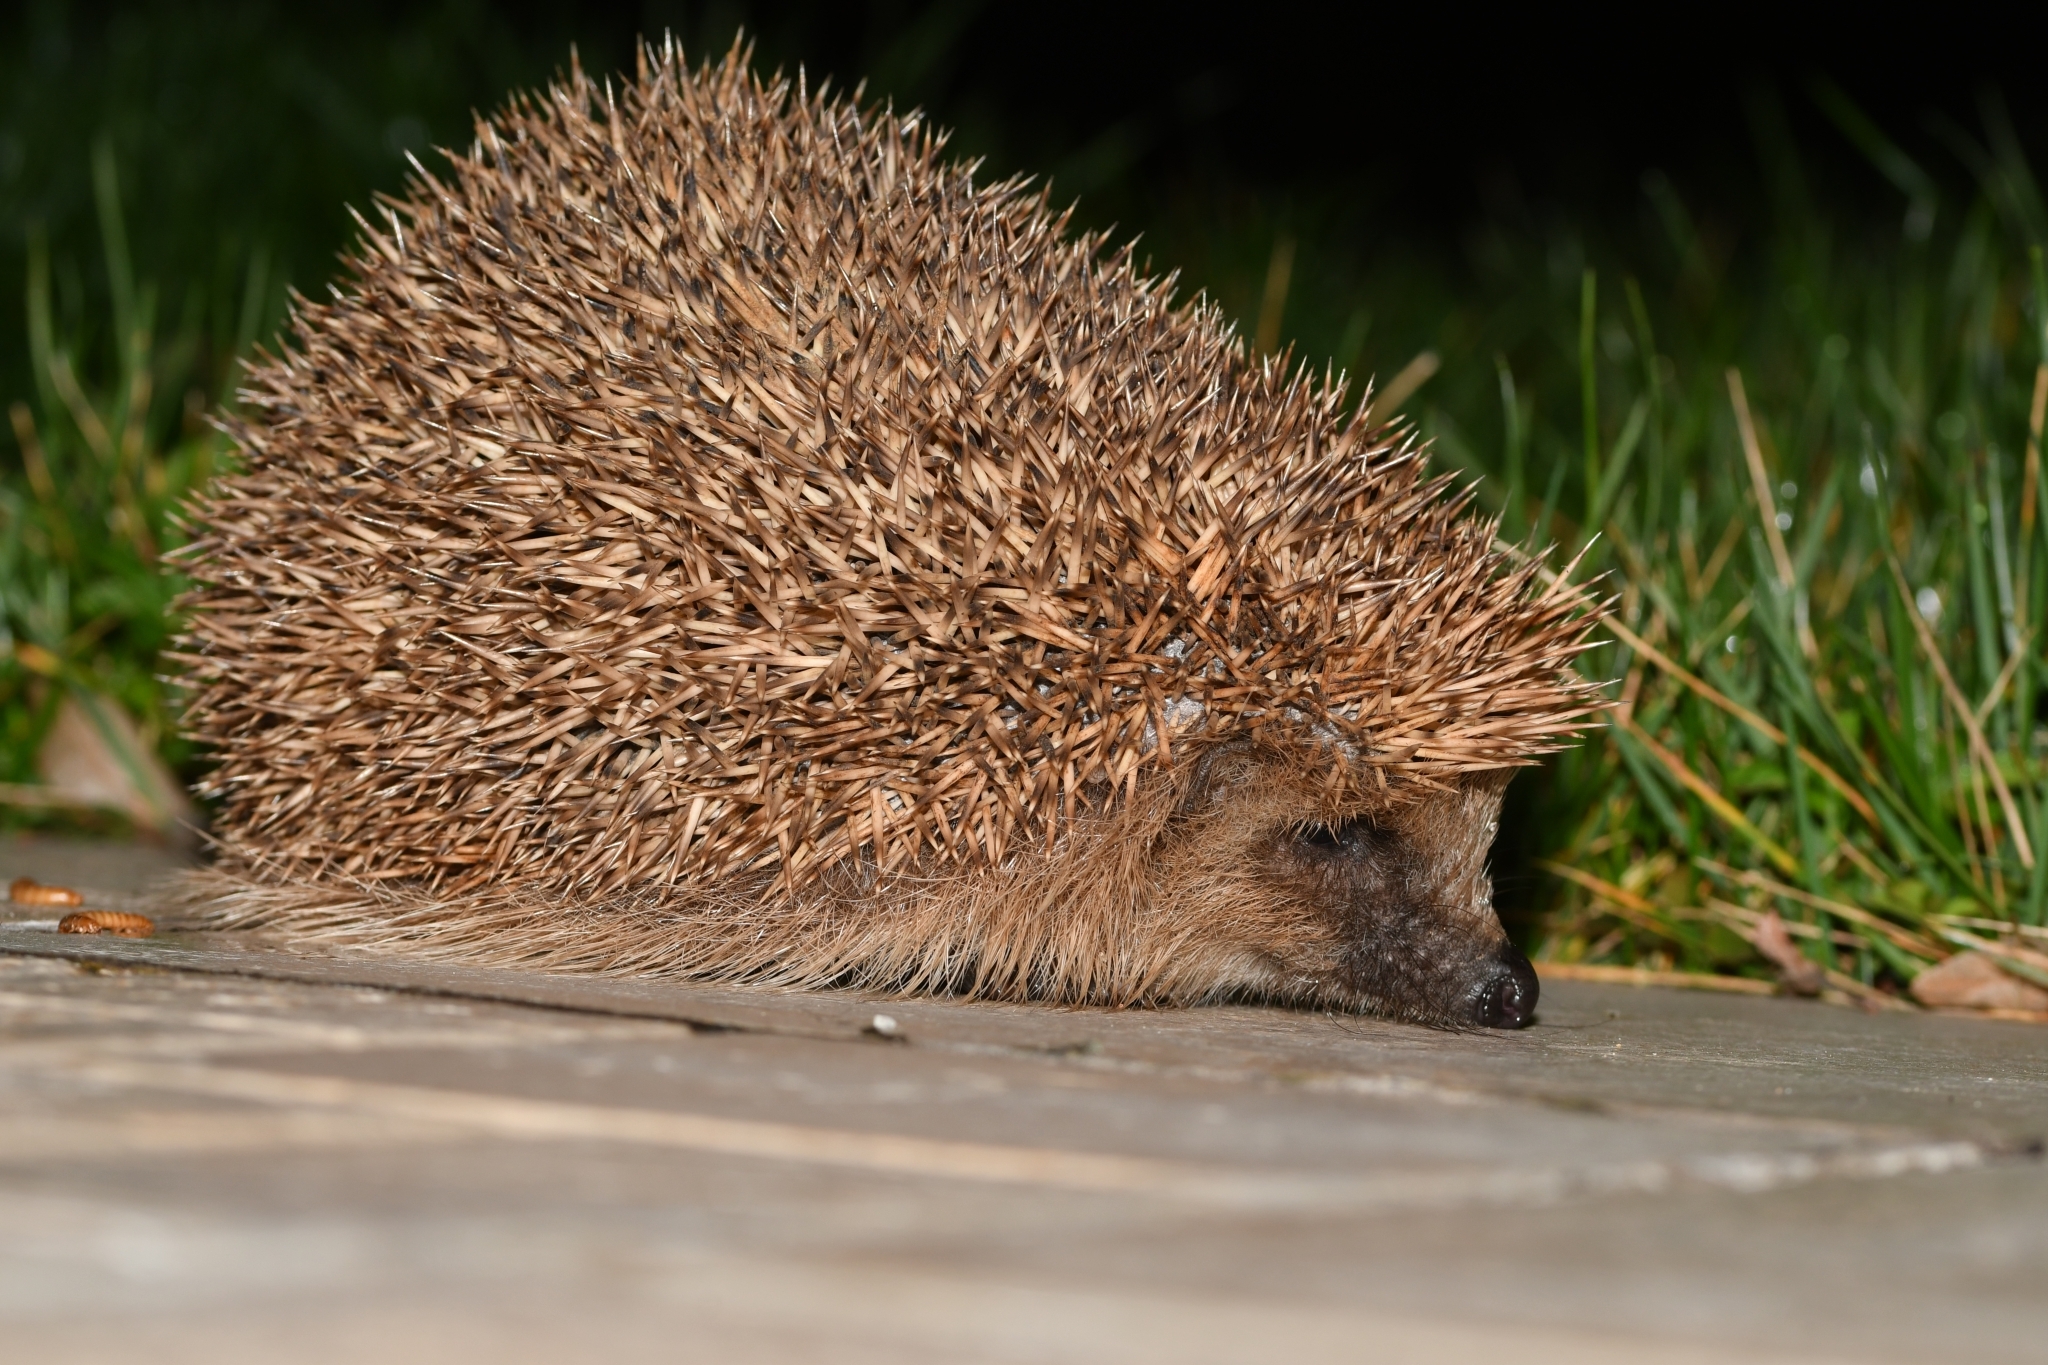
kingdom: Animalia
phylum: Chordata
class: Mammalia
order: Erinaceomorpha
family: Erinaceidae
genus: Erinaceus
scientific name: Erinaceus europaeus
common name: West european hedgehog
